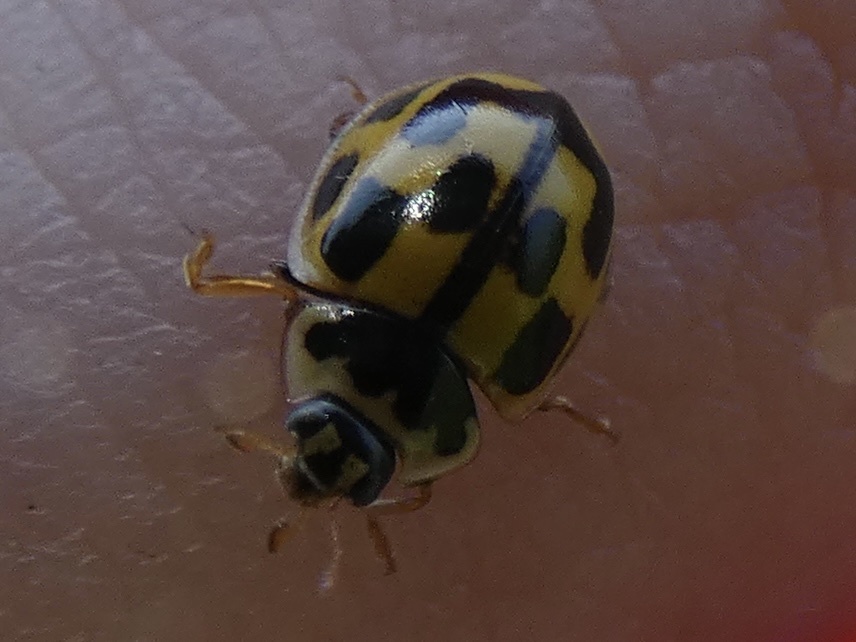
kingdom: Animalia
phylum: Arthropoda
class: Insecta
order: Coleoptera
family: Coccinellidae
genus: Propylaea
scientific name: Propylaea quatuordecimpunctata
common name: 14-spotted ladybird beetle
